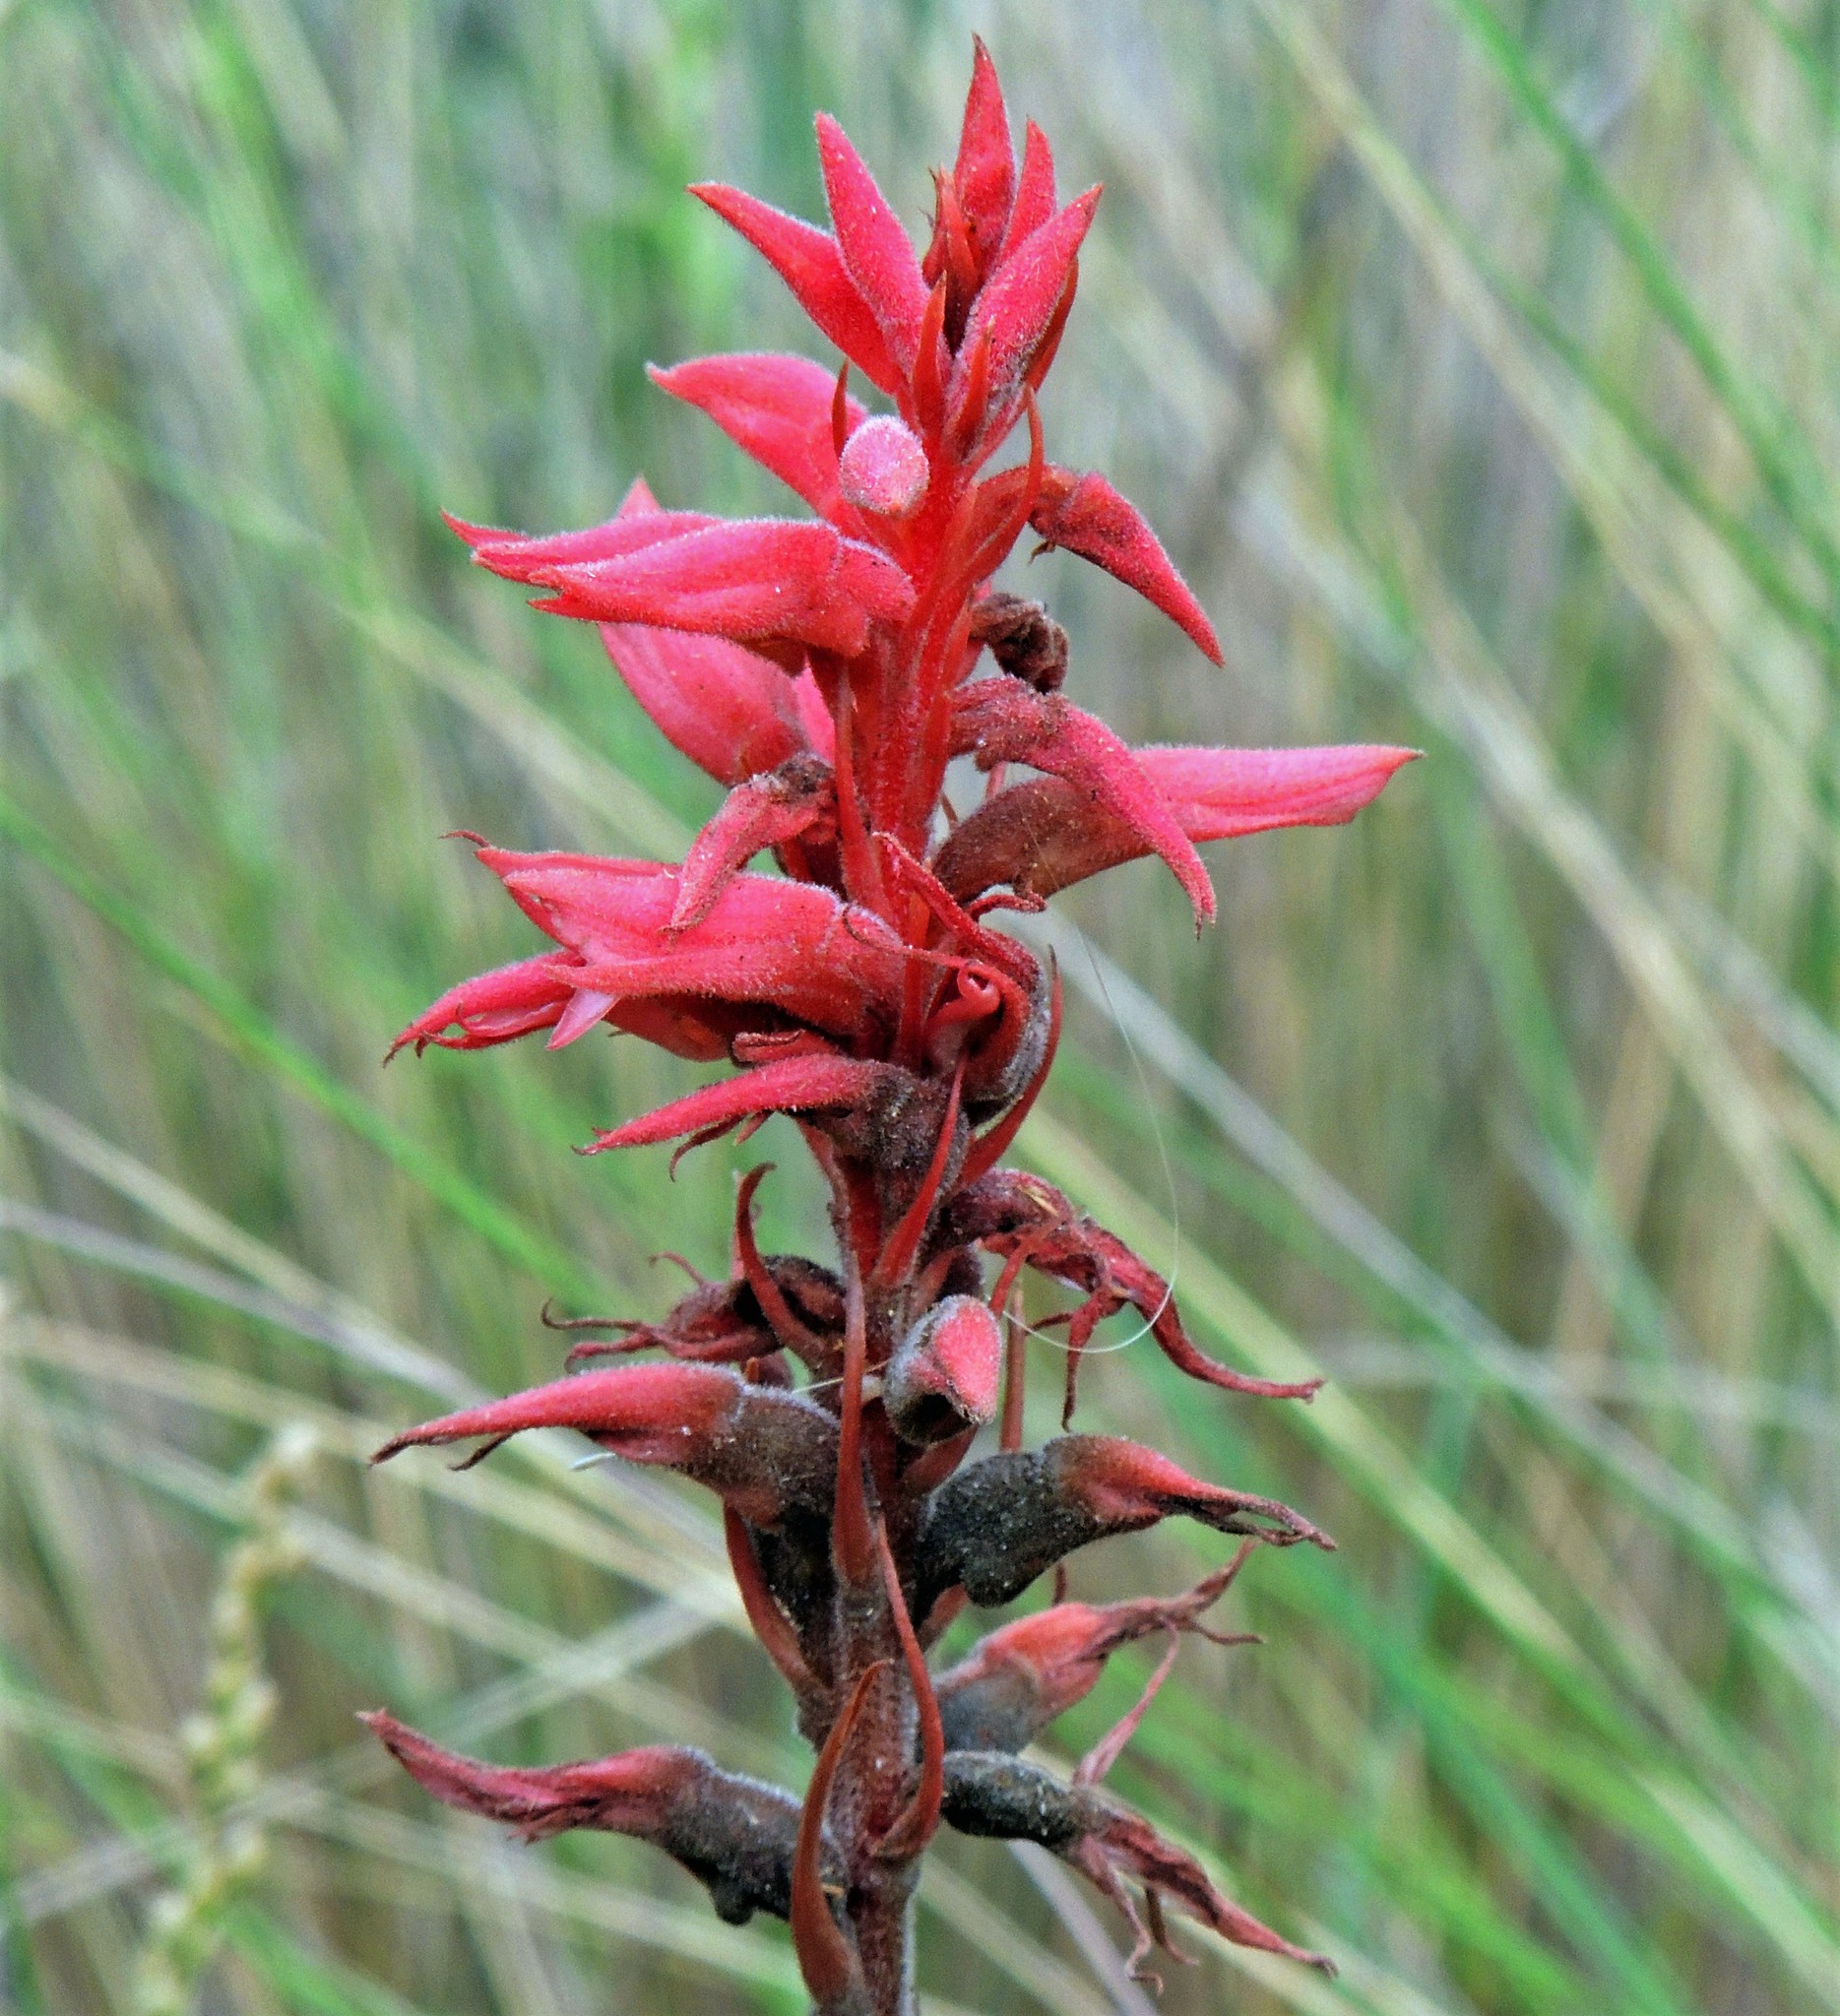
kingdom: Plantae
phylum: Tracheophyta
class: Liliopsida
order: Asparagales
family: Orchidaceae
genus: Sacoila
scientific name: Sacoila lanceolata
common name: Leafless beaked ladiestresses
